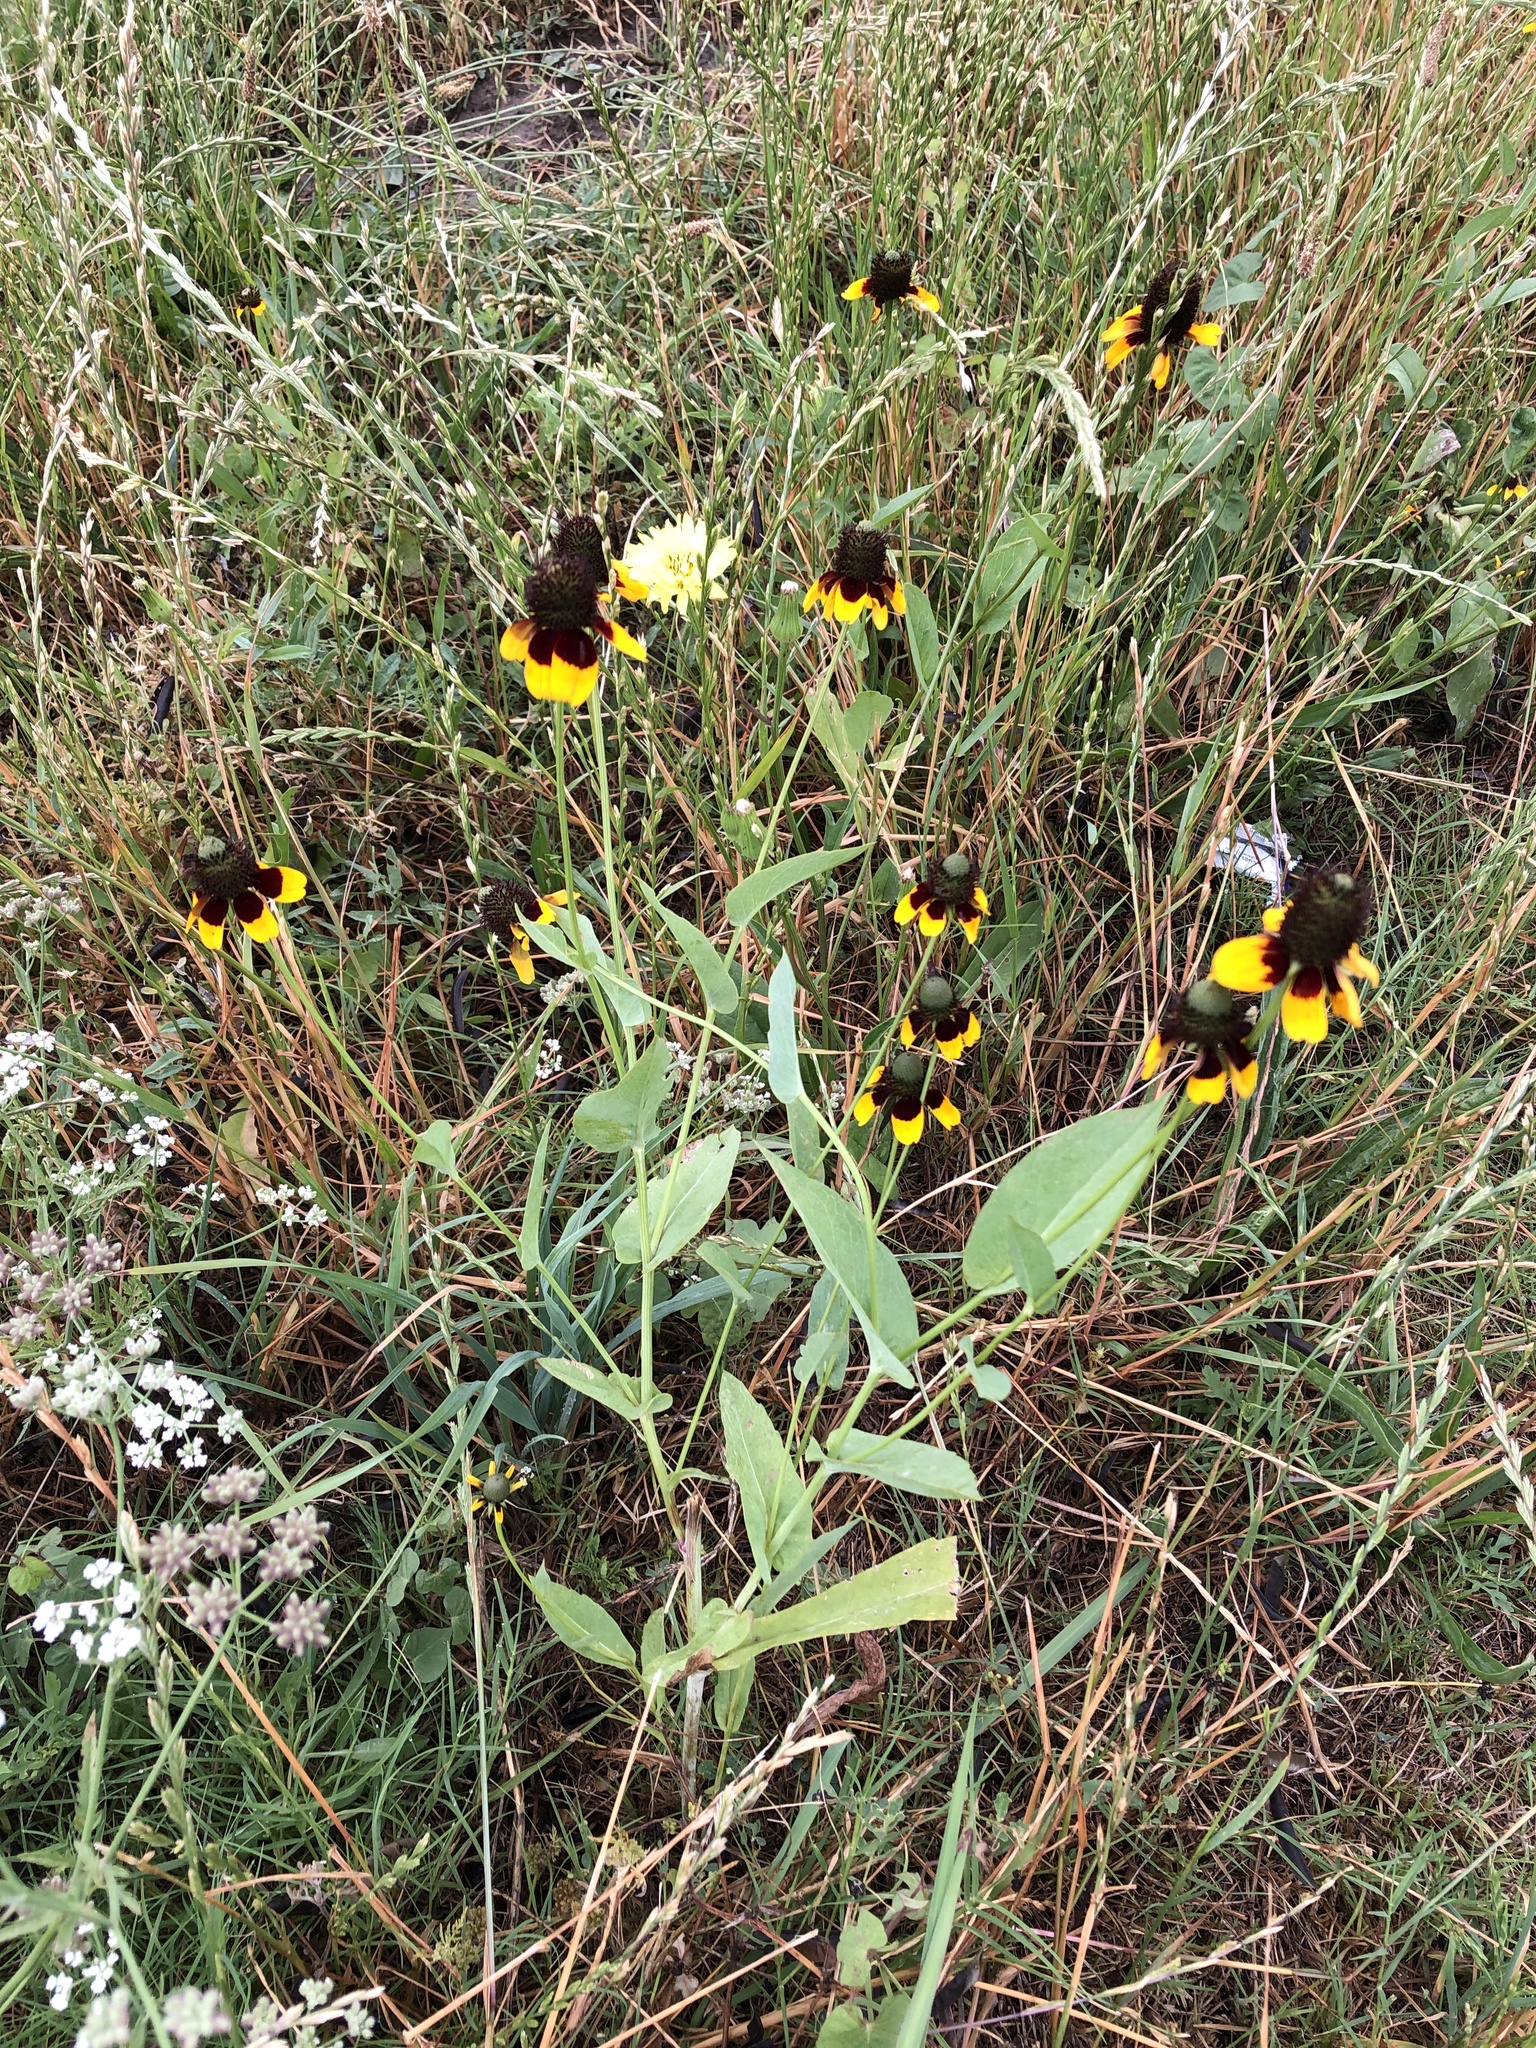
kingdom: Plantae
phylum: Tracheophyta
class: Magnoliopsida
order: Asterales
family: Asteraceae
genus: Rudbeckia
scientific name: Rudbeckia amplexicaulis
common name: Clasping-leaf coneflower
